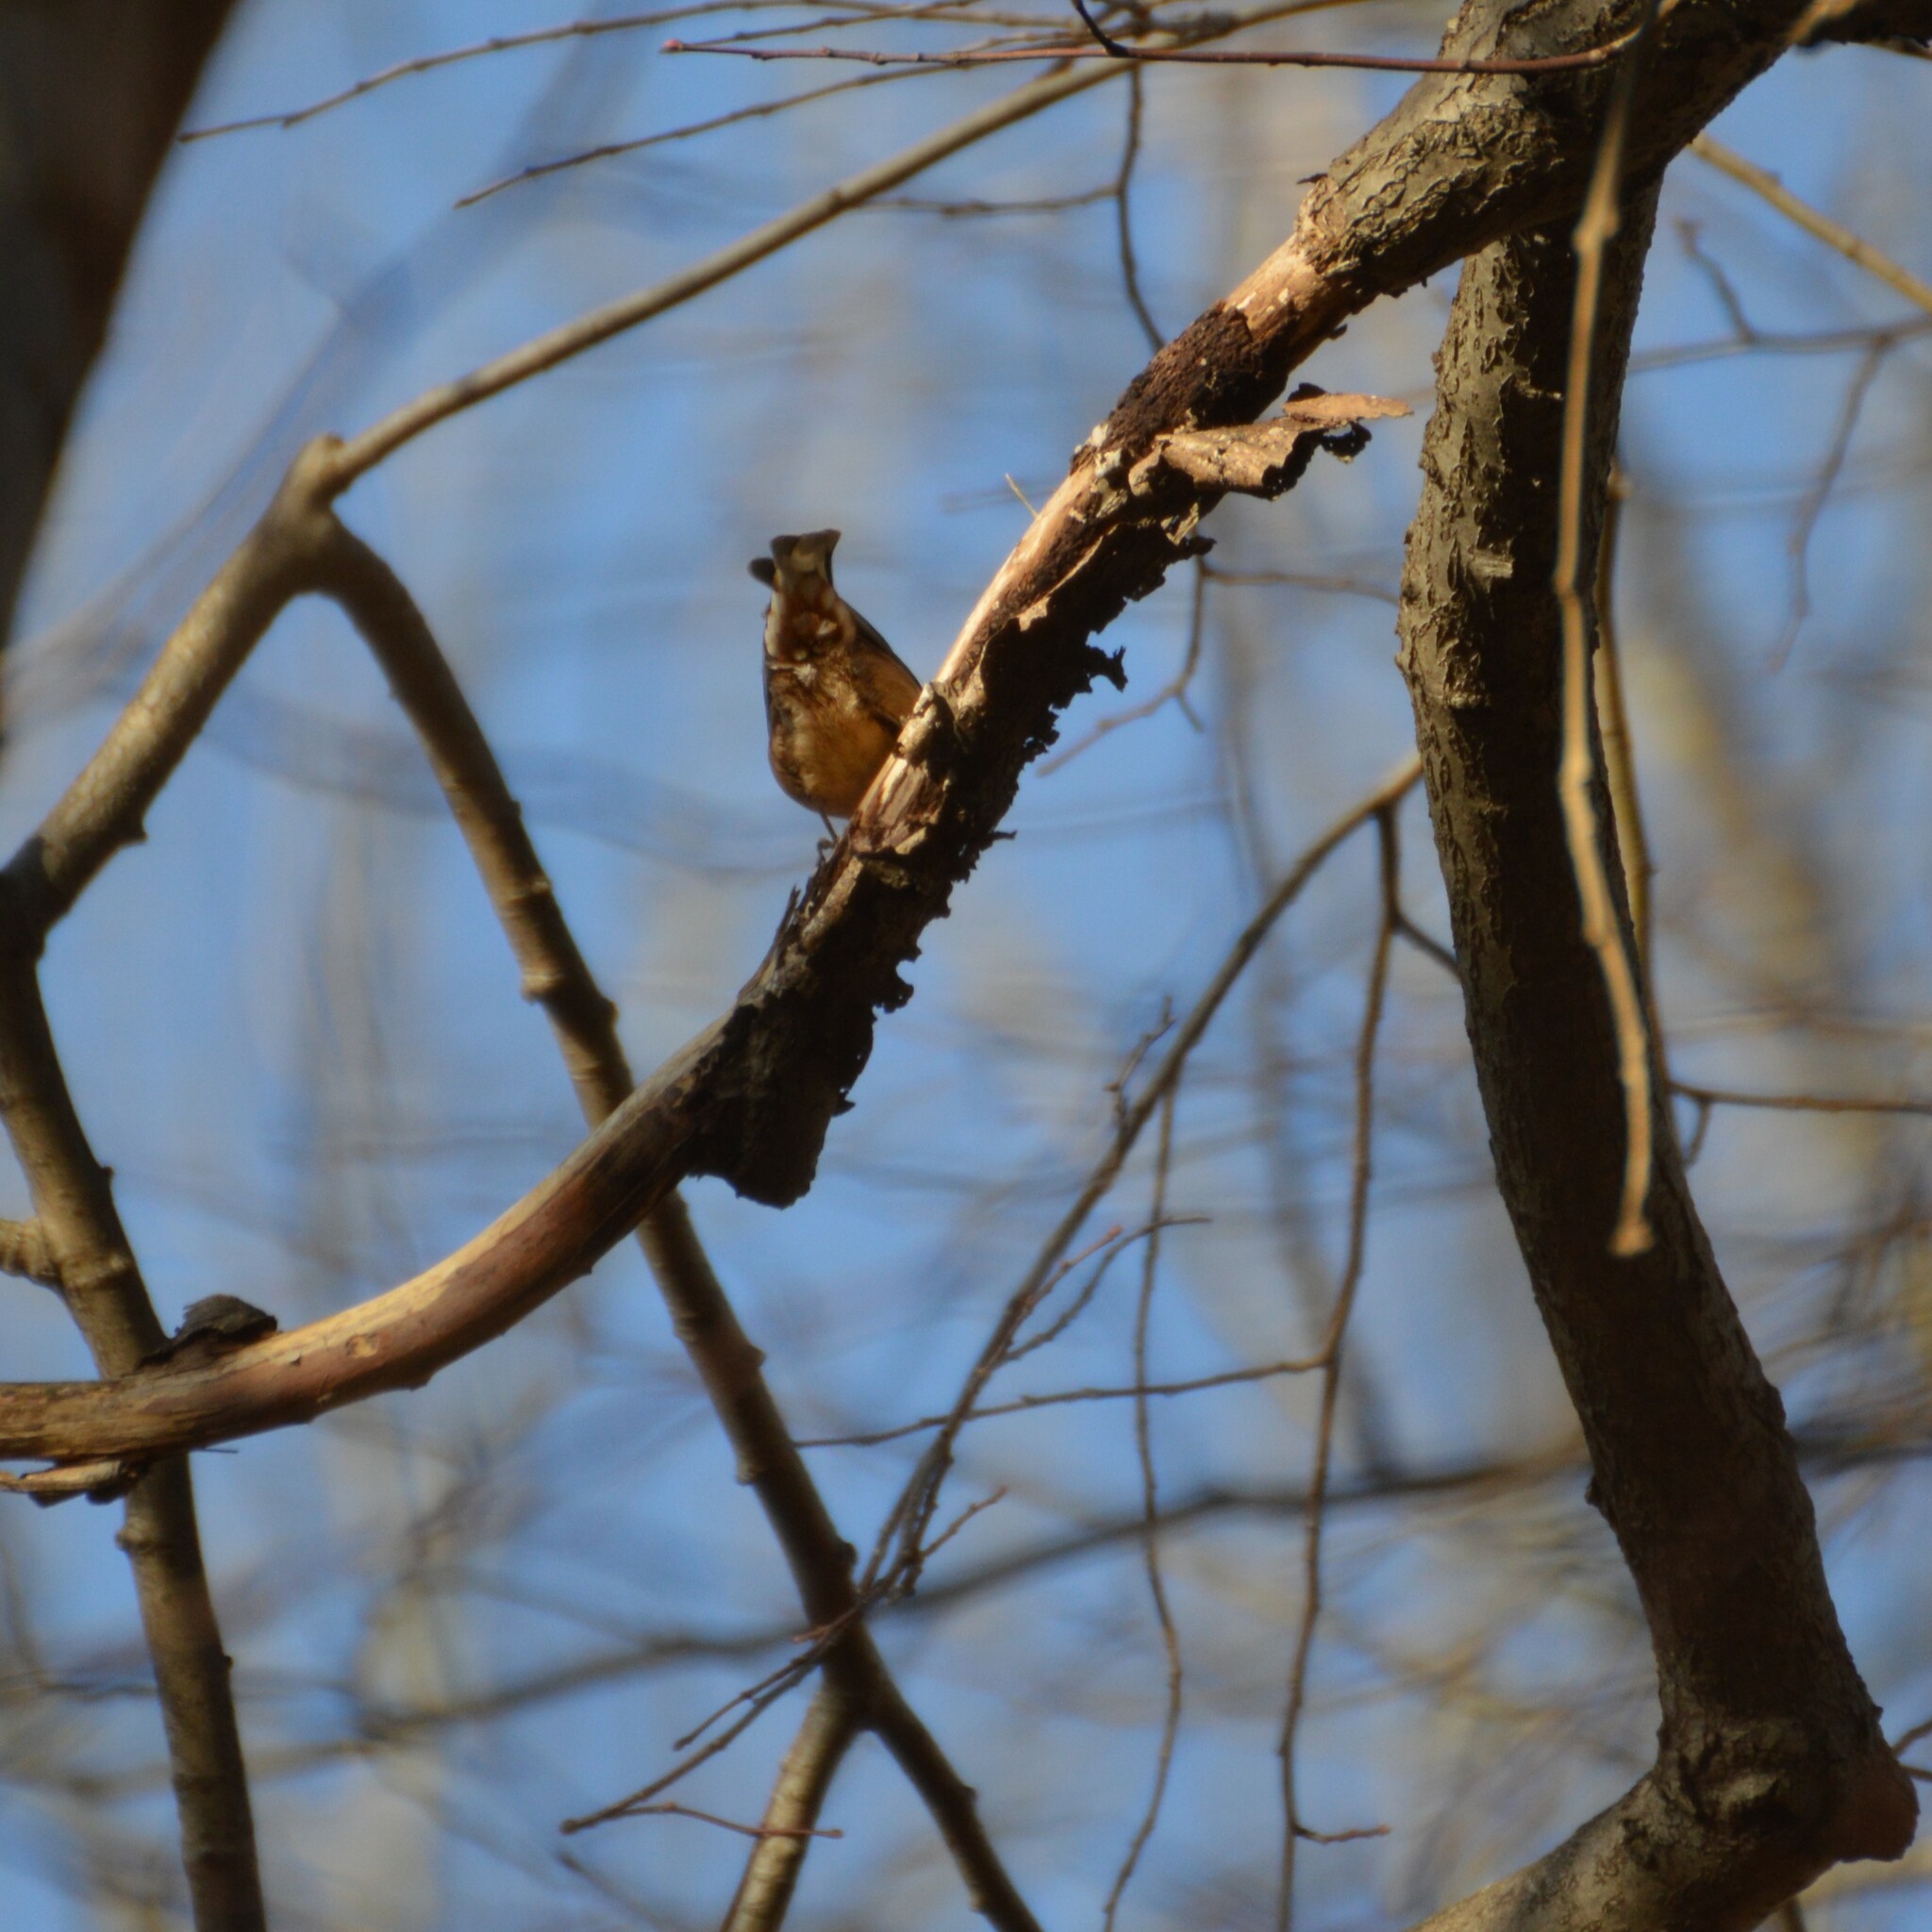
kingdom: Animalia
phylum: Chordata
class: Aves
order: Passeriformes
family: Sittidae
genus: Sitta
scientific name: Sitta europaea
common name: Eurasian nuthatch
